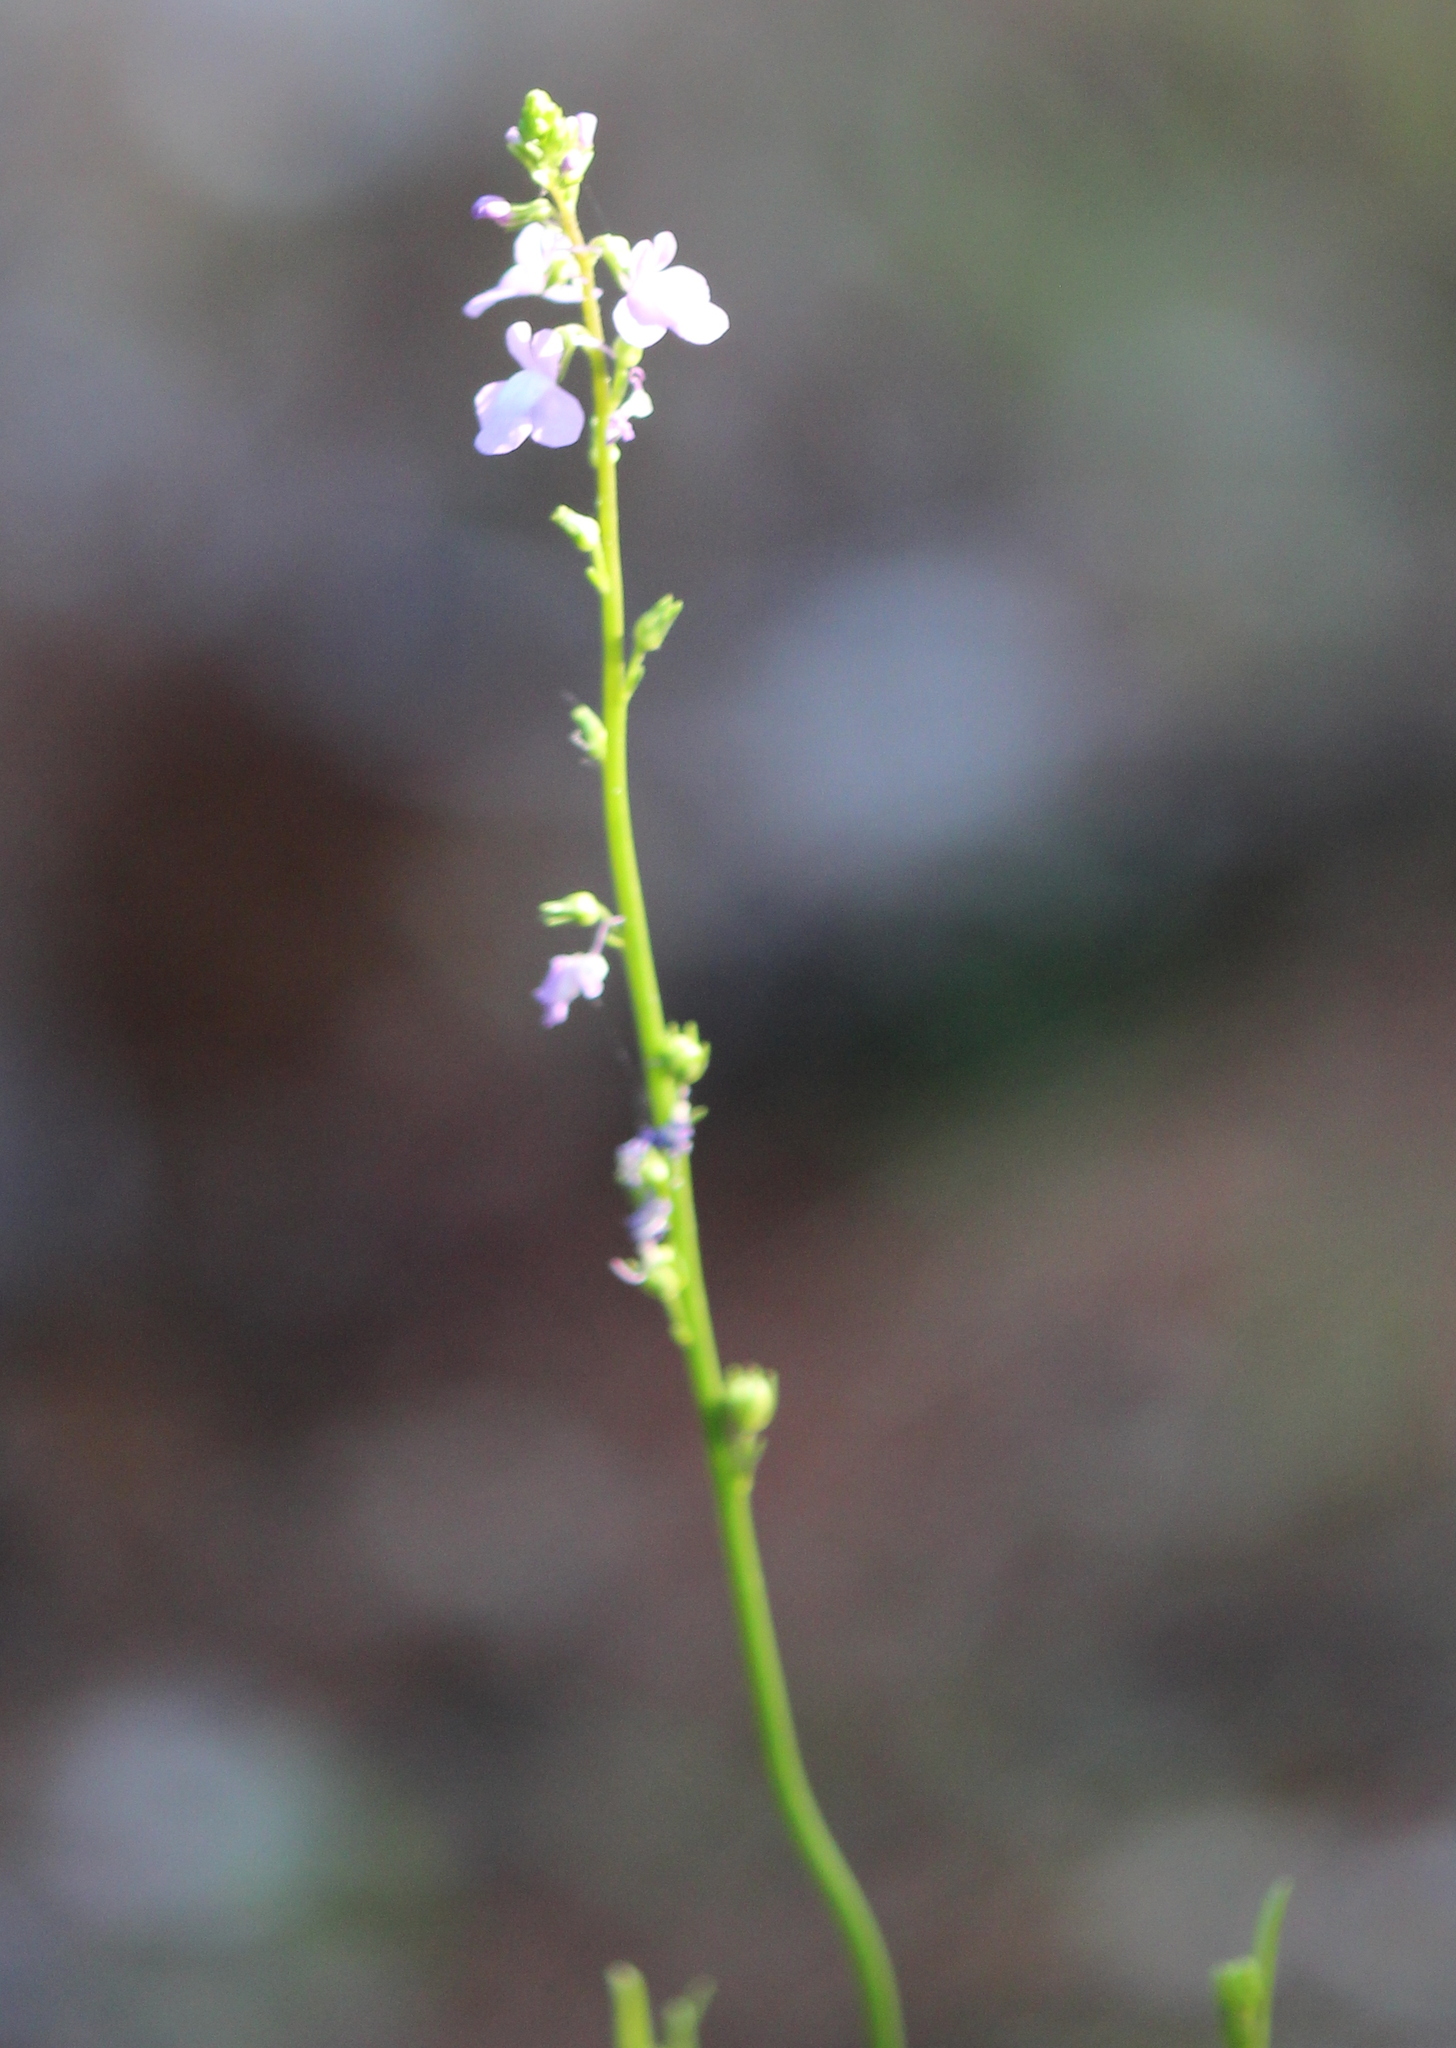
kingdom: Plantae
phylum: Tracheophyta
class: Magnoliopsida
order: Lamiales
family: Plantaginaceae
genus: Nuttallanthus
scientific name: Nuttallanthus canadensis
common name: Blue toadflax
